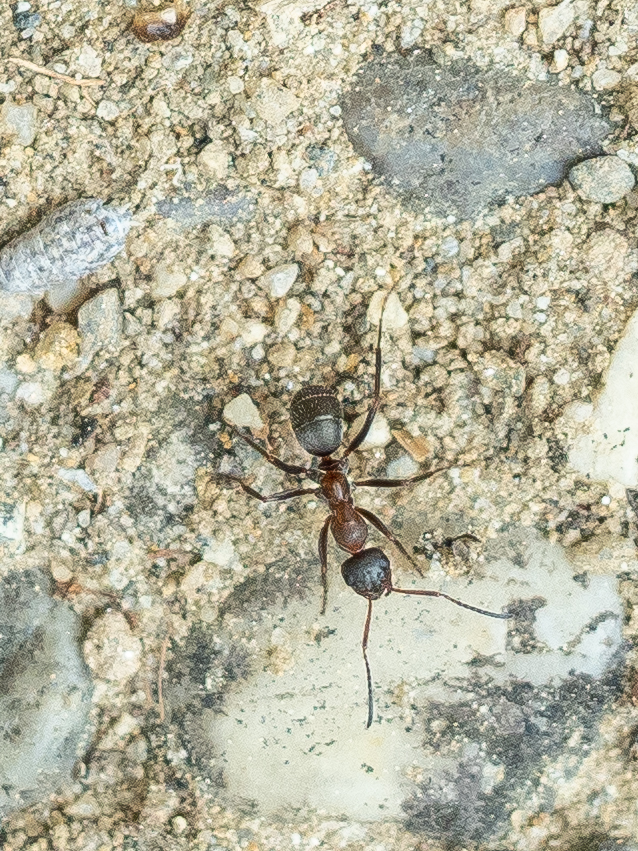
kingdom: Animalia
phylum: Arthropoda
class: Insecta
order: Hymenoptera
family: Formicidae
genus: Formica
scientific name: Formica rufibarbis
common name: Red barbed ant
